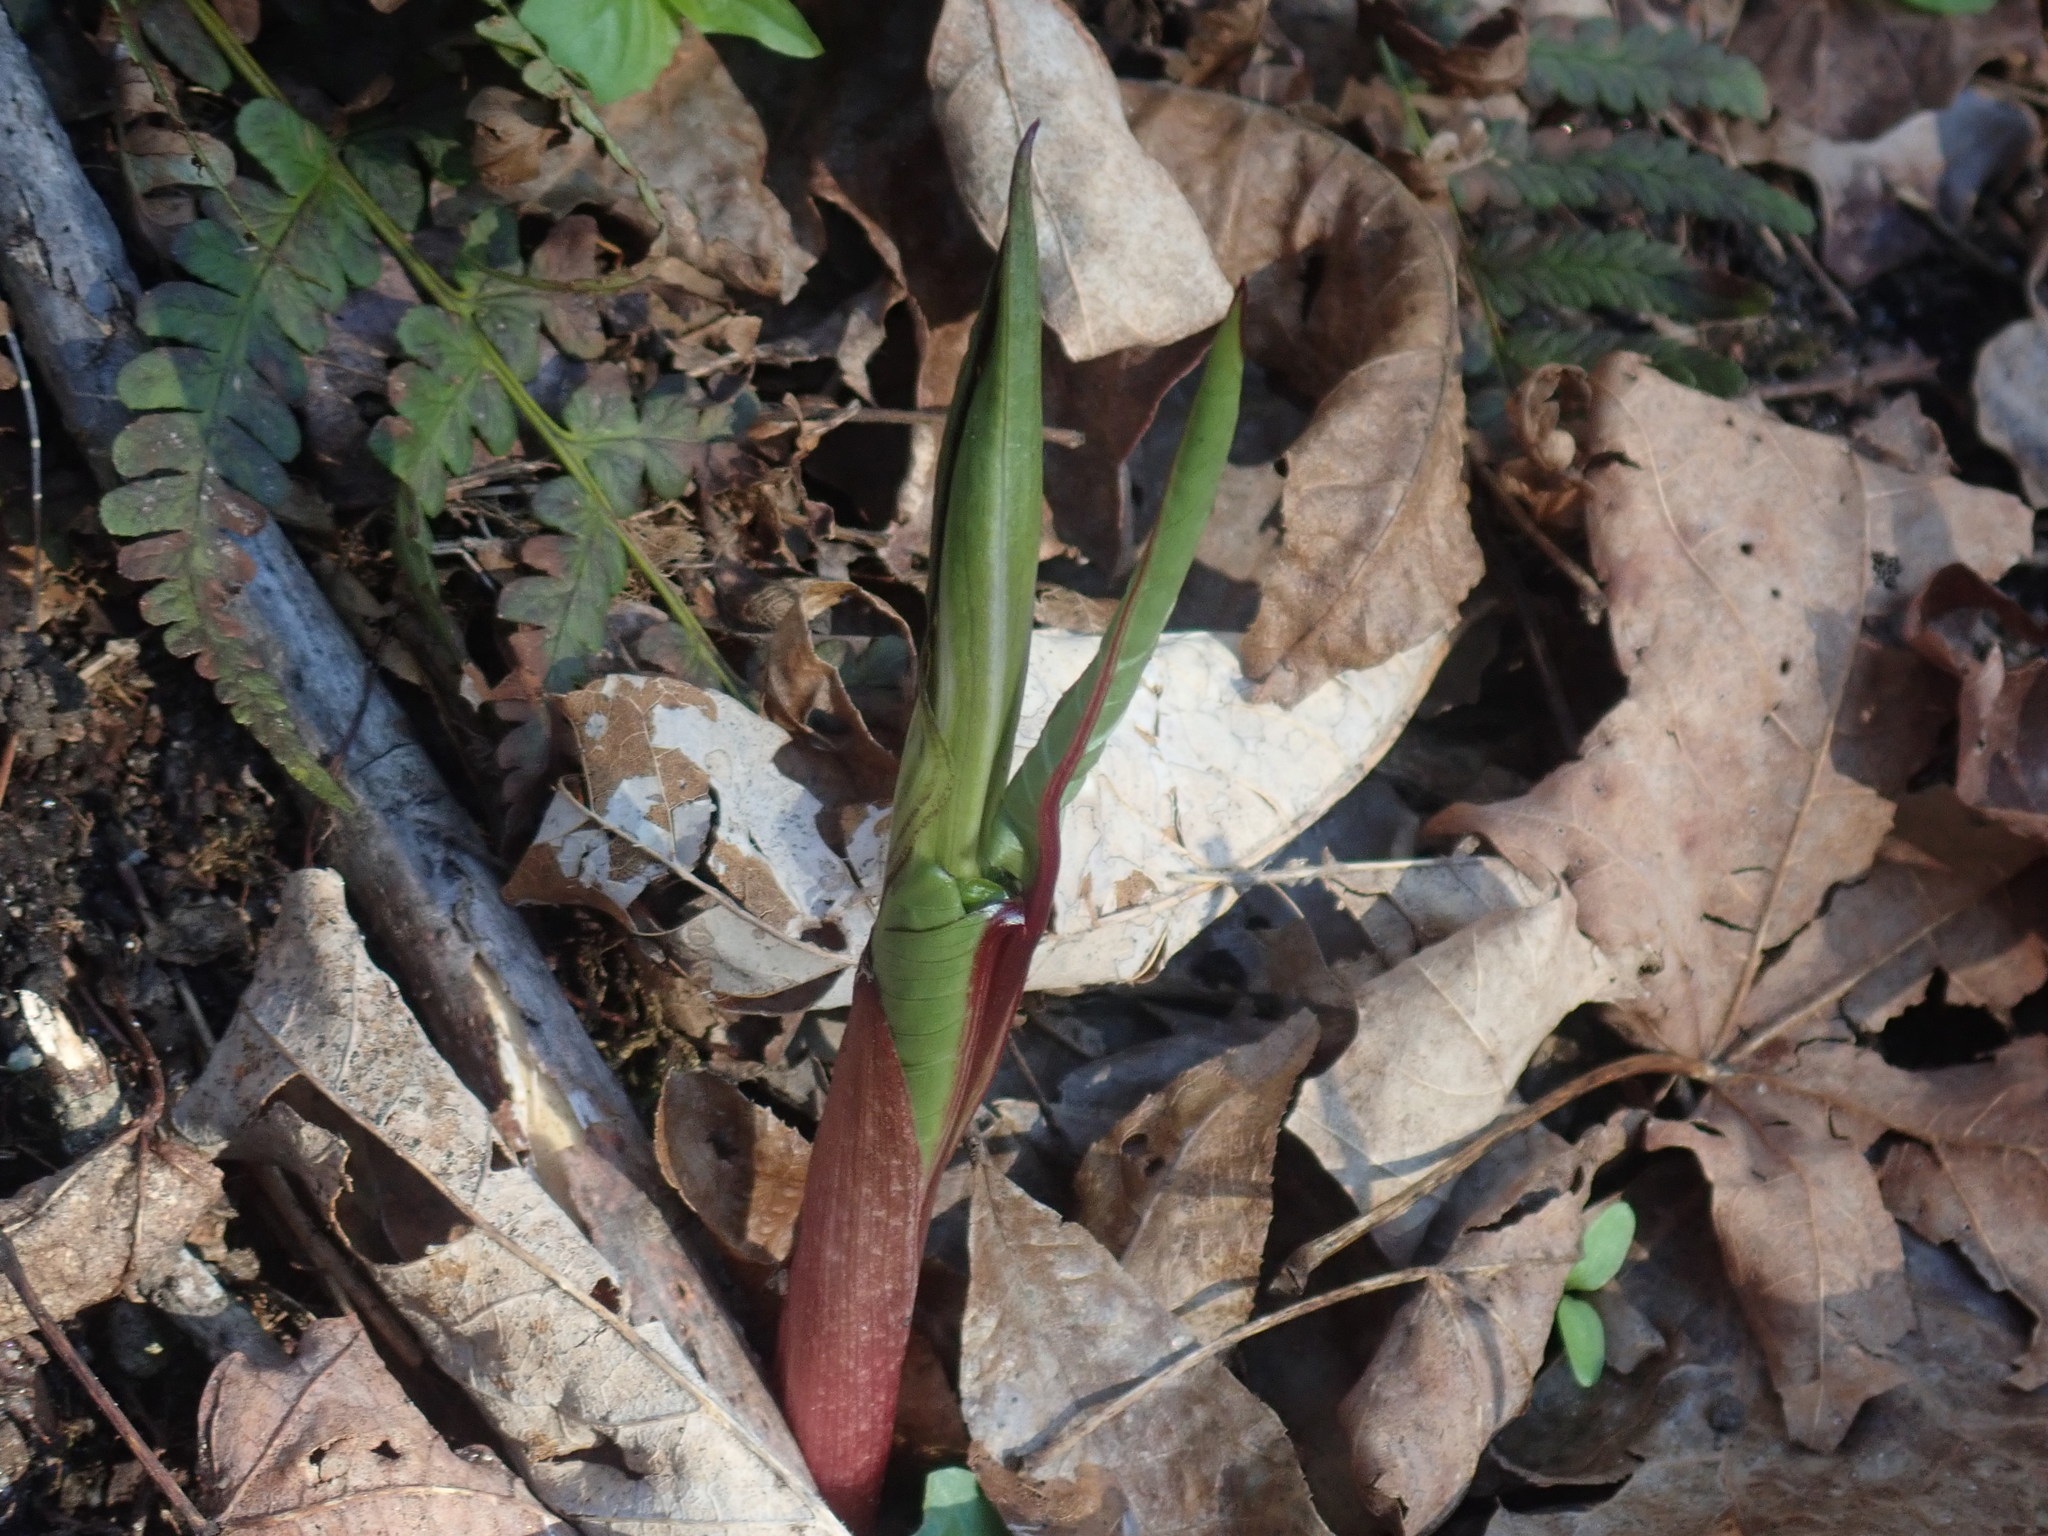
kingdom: Plantae
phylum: Tracheophyta
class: Liliopsida
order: Alismatales
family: Araceae
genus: Arisaema
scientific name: Arisaema triphyllum
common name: Jack-in-the-pulpit
